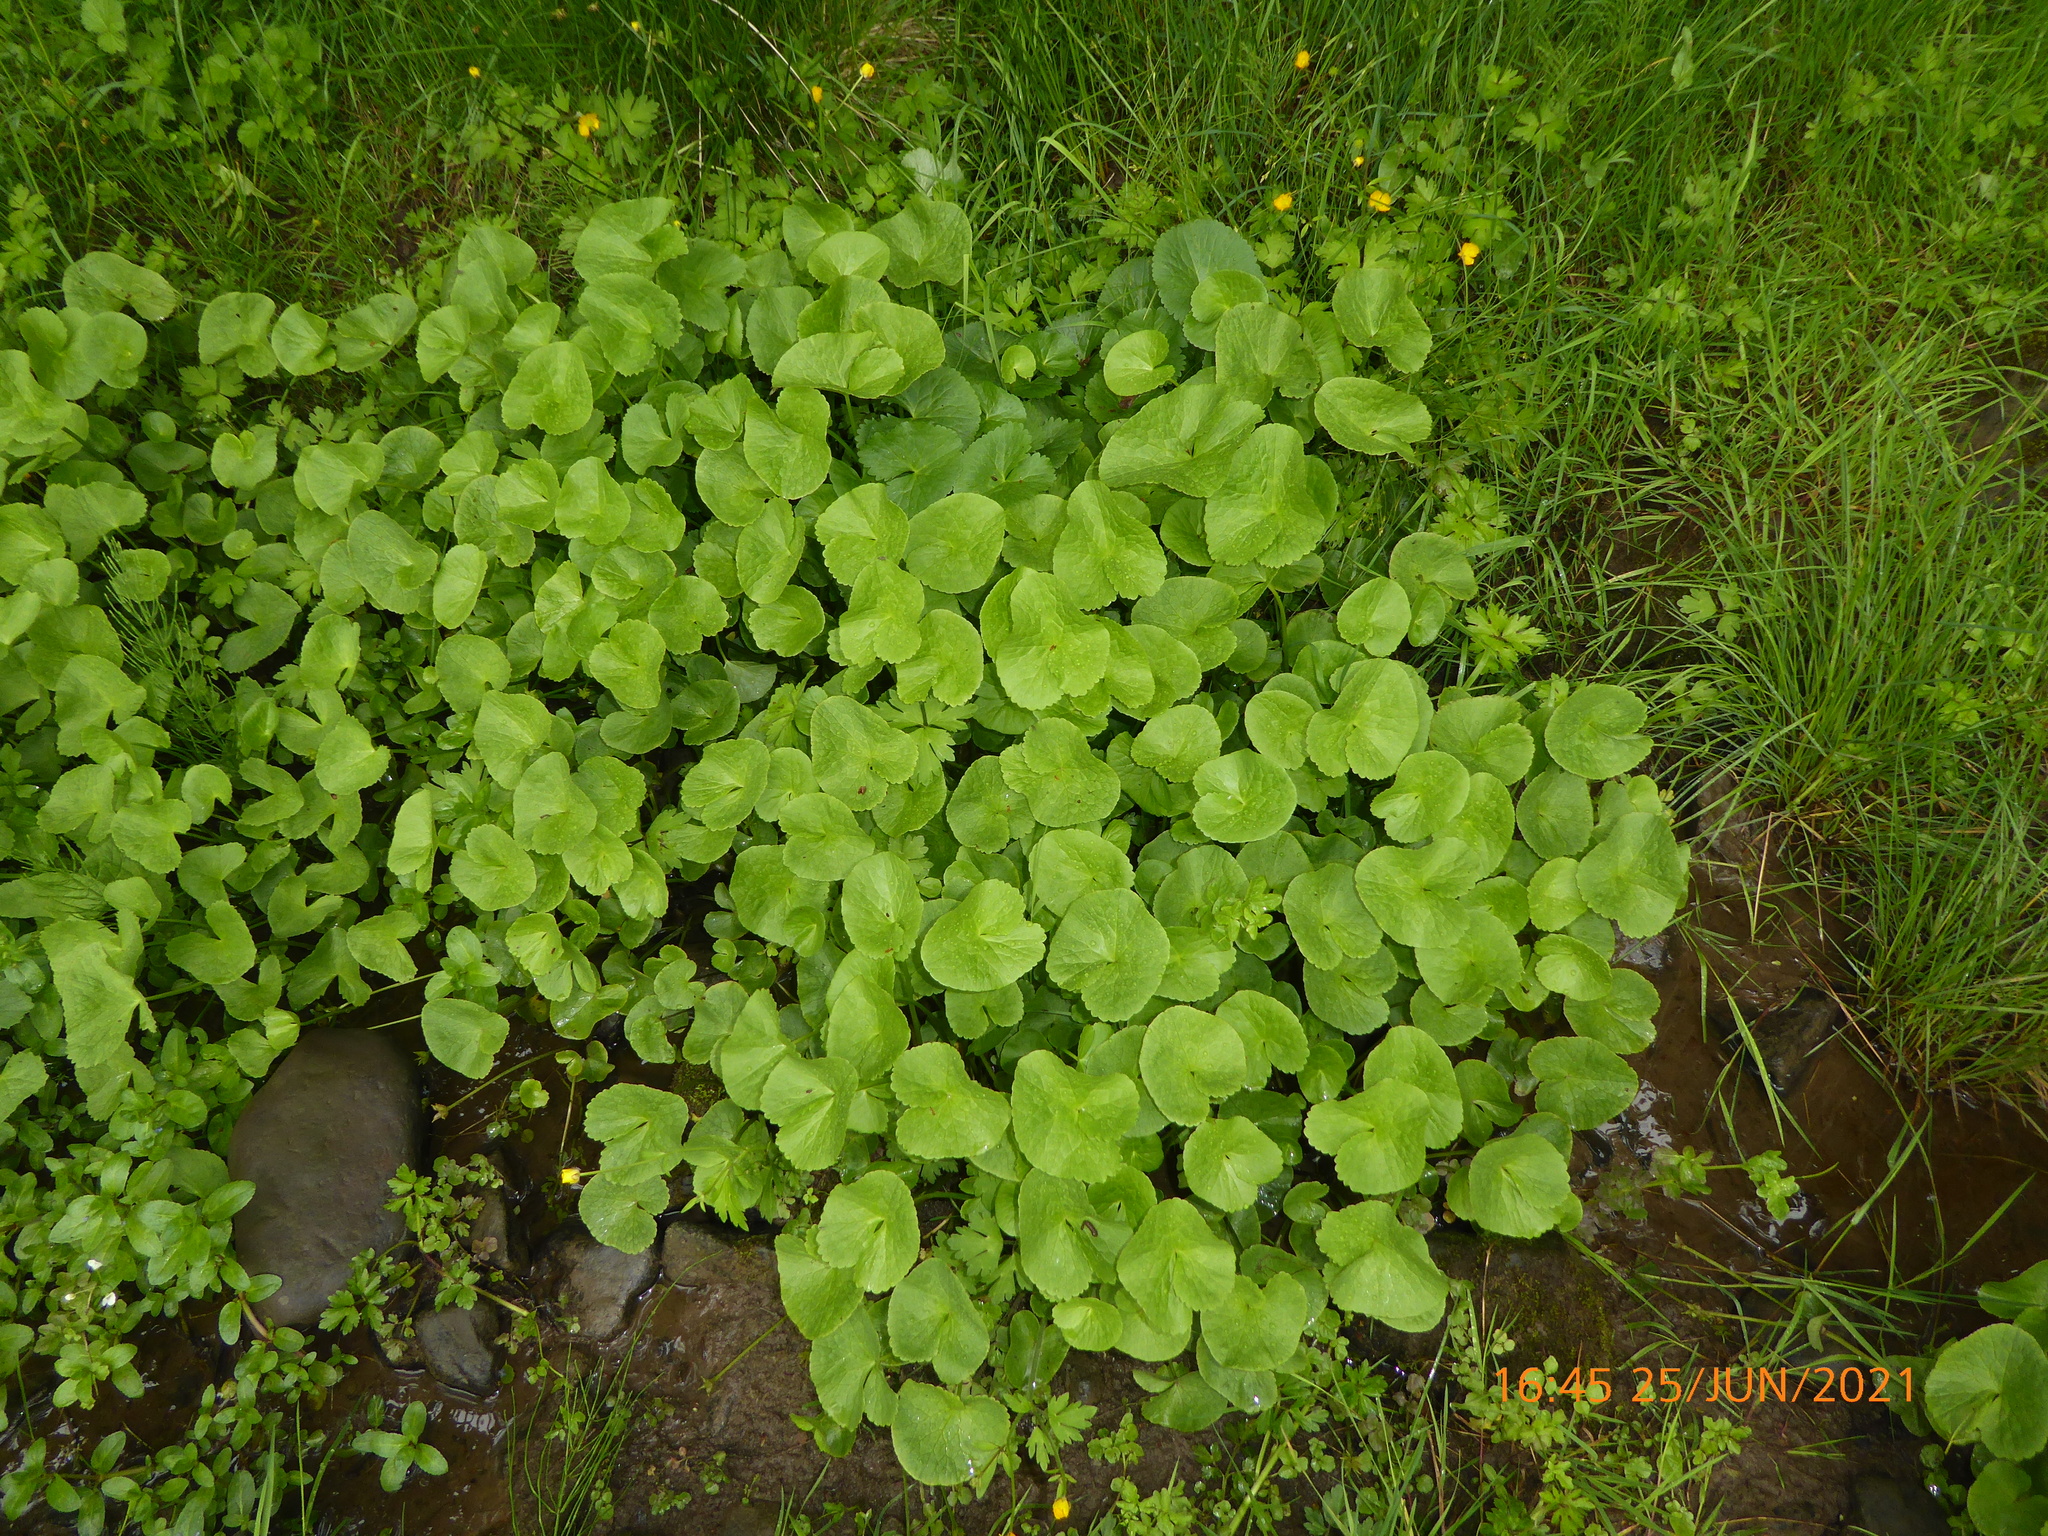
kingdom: Plantae
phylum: Tracheophyta
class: Magnoliopsida
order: Ranunculales
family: Ranunculaceae
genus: Caltha
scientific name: Caltha palustris
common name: Marsh marigold
